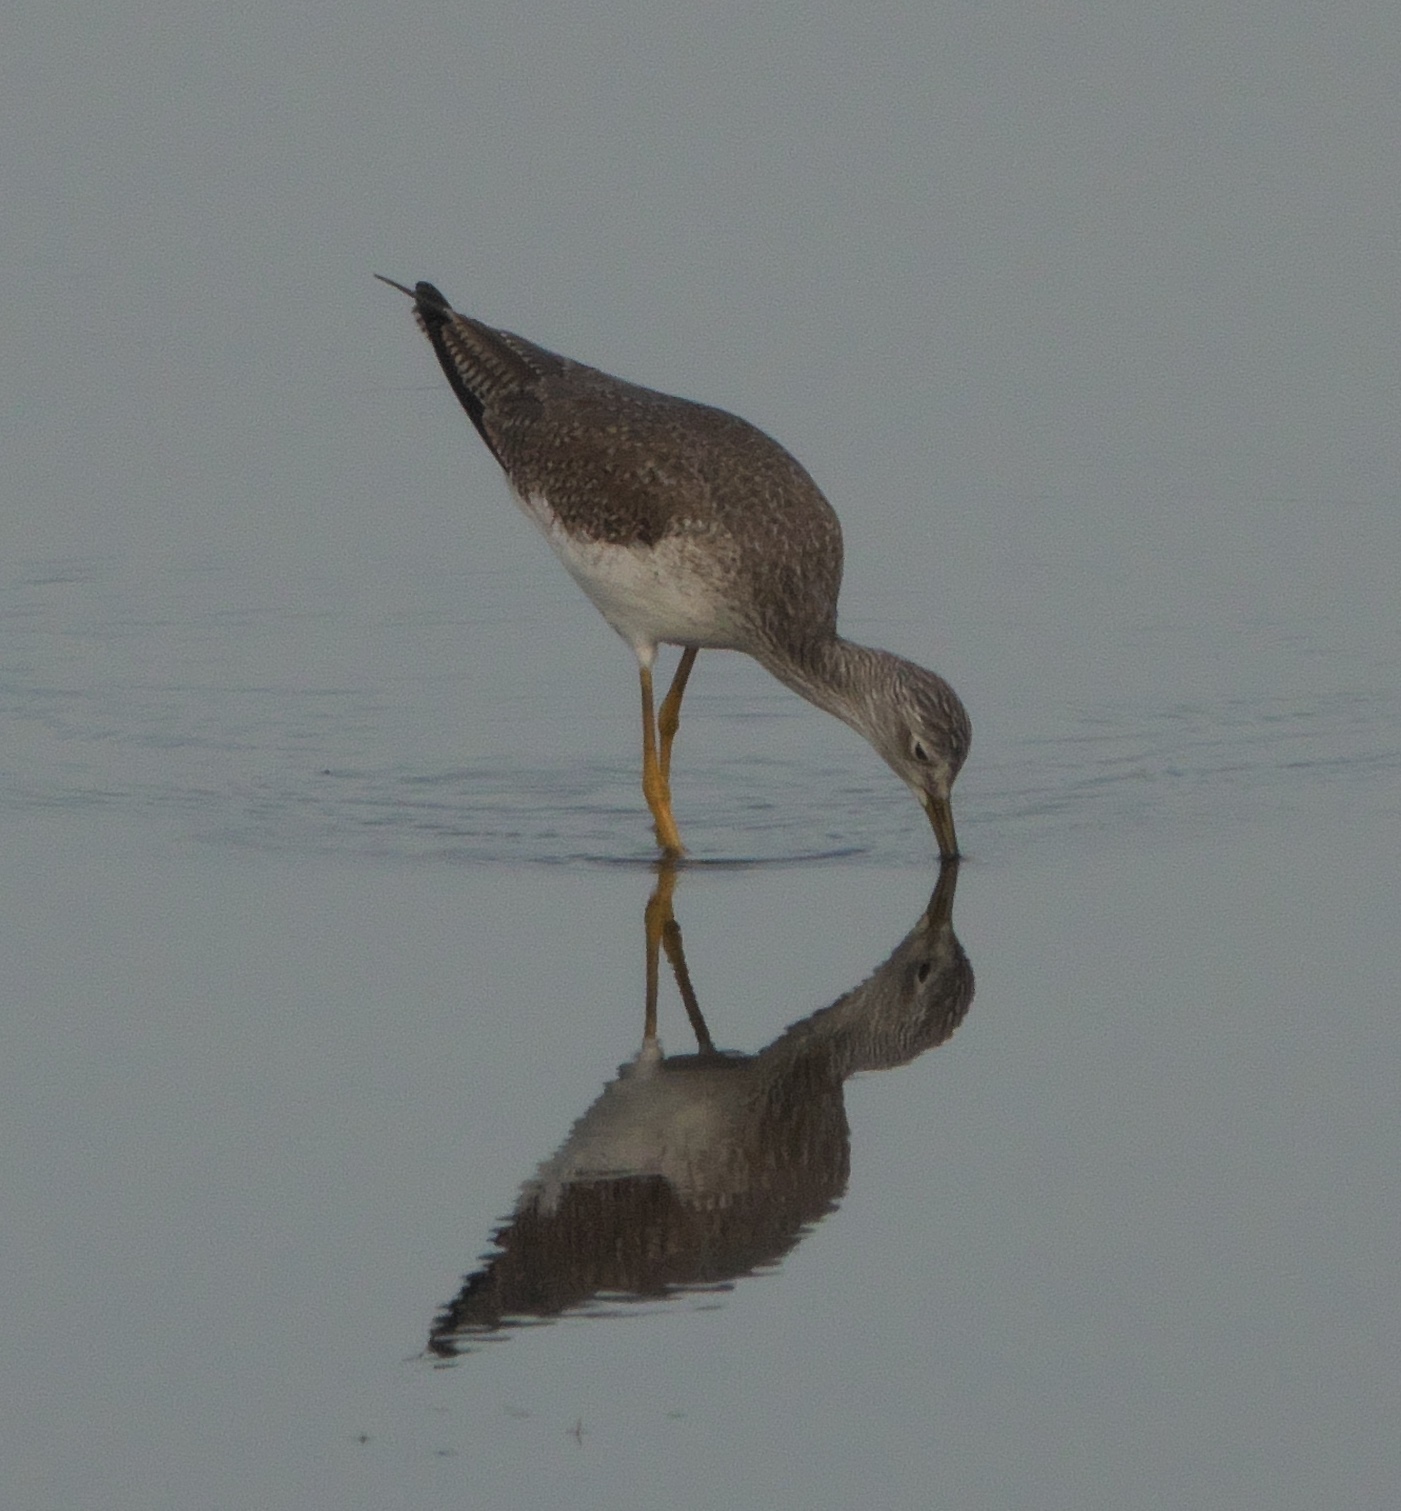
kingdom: Animalia
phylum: Chordata
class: Aves
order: Charadriiformes
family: Scolopacidae
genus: Tringa
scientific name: Tringa melanoleuca
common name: Greater yellowlegs
